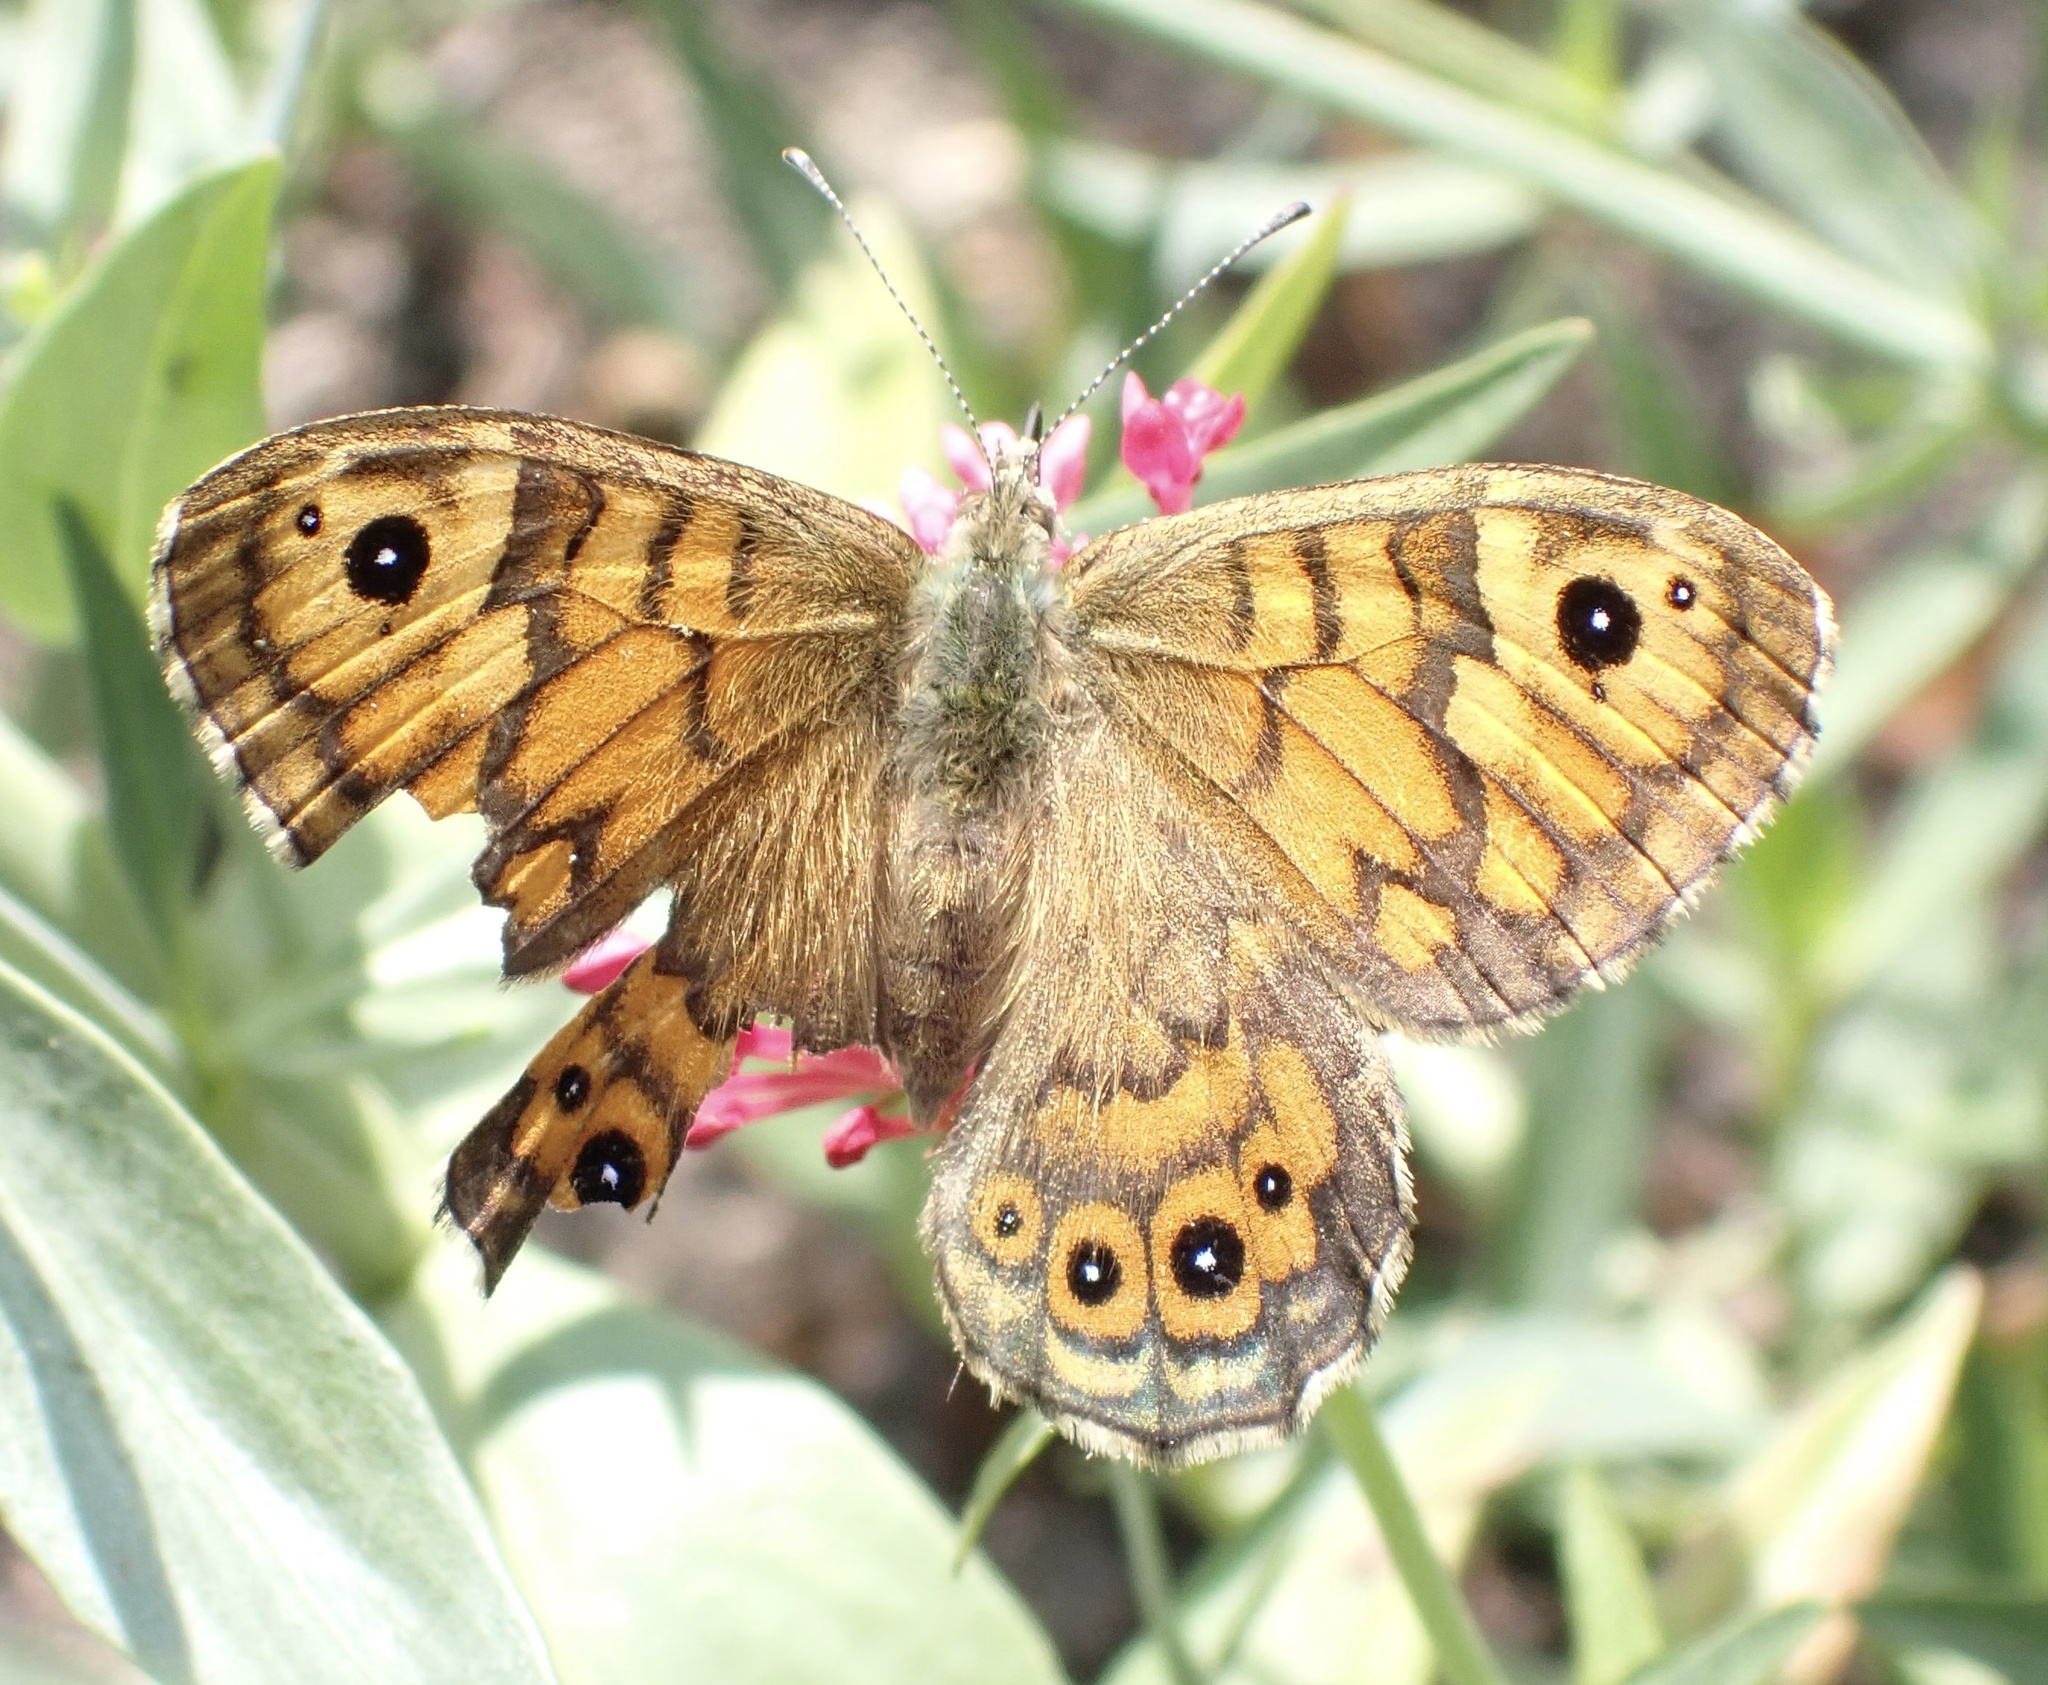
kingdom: Animalia
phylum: Arthropoda
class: Insecta
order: Lepidoptera
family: Nymphalidae
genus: Pararge
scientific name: Pararge Lasiommata megera
